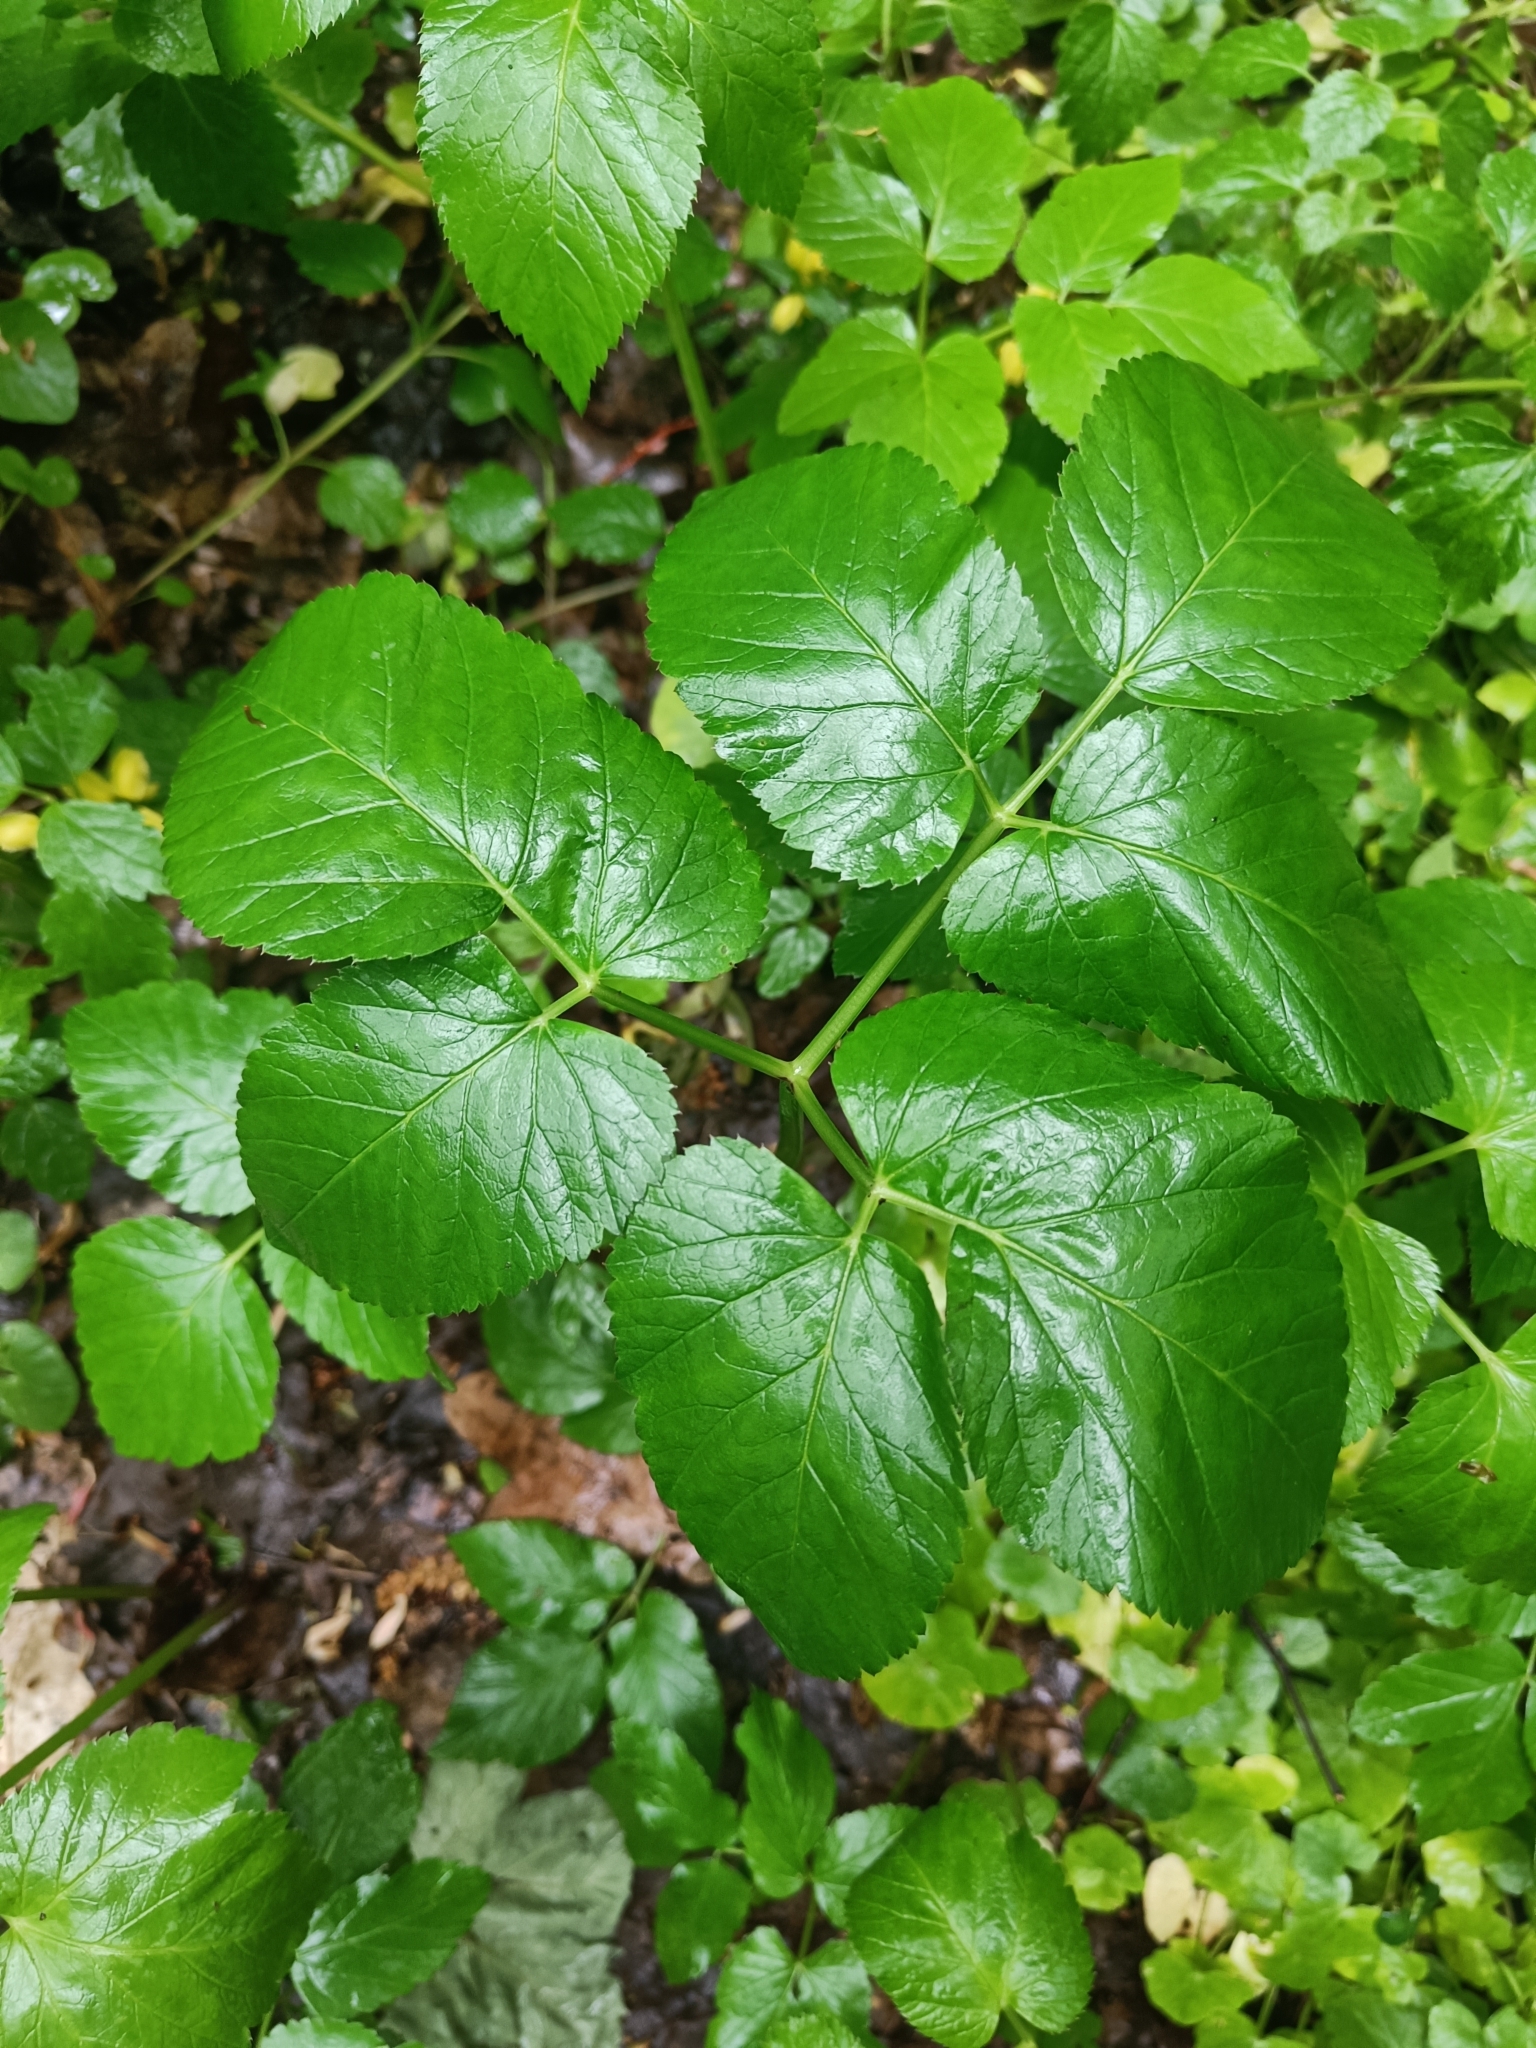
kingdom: Plantae
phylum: Tracheophyta
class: Magnoliopsida
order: Apiales
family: Apiaceae
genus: Aegopodium
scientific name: Aegopodium podagraria
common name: Ground-elder
